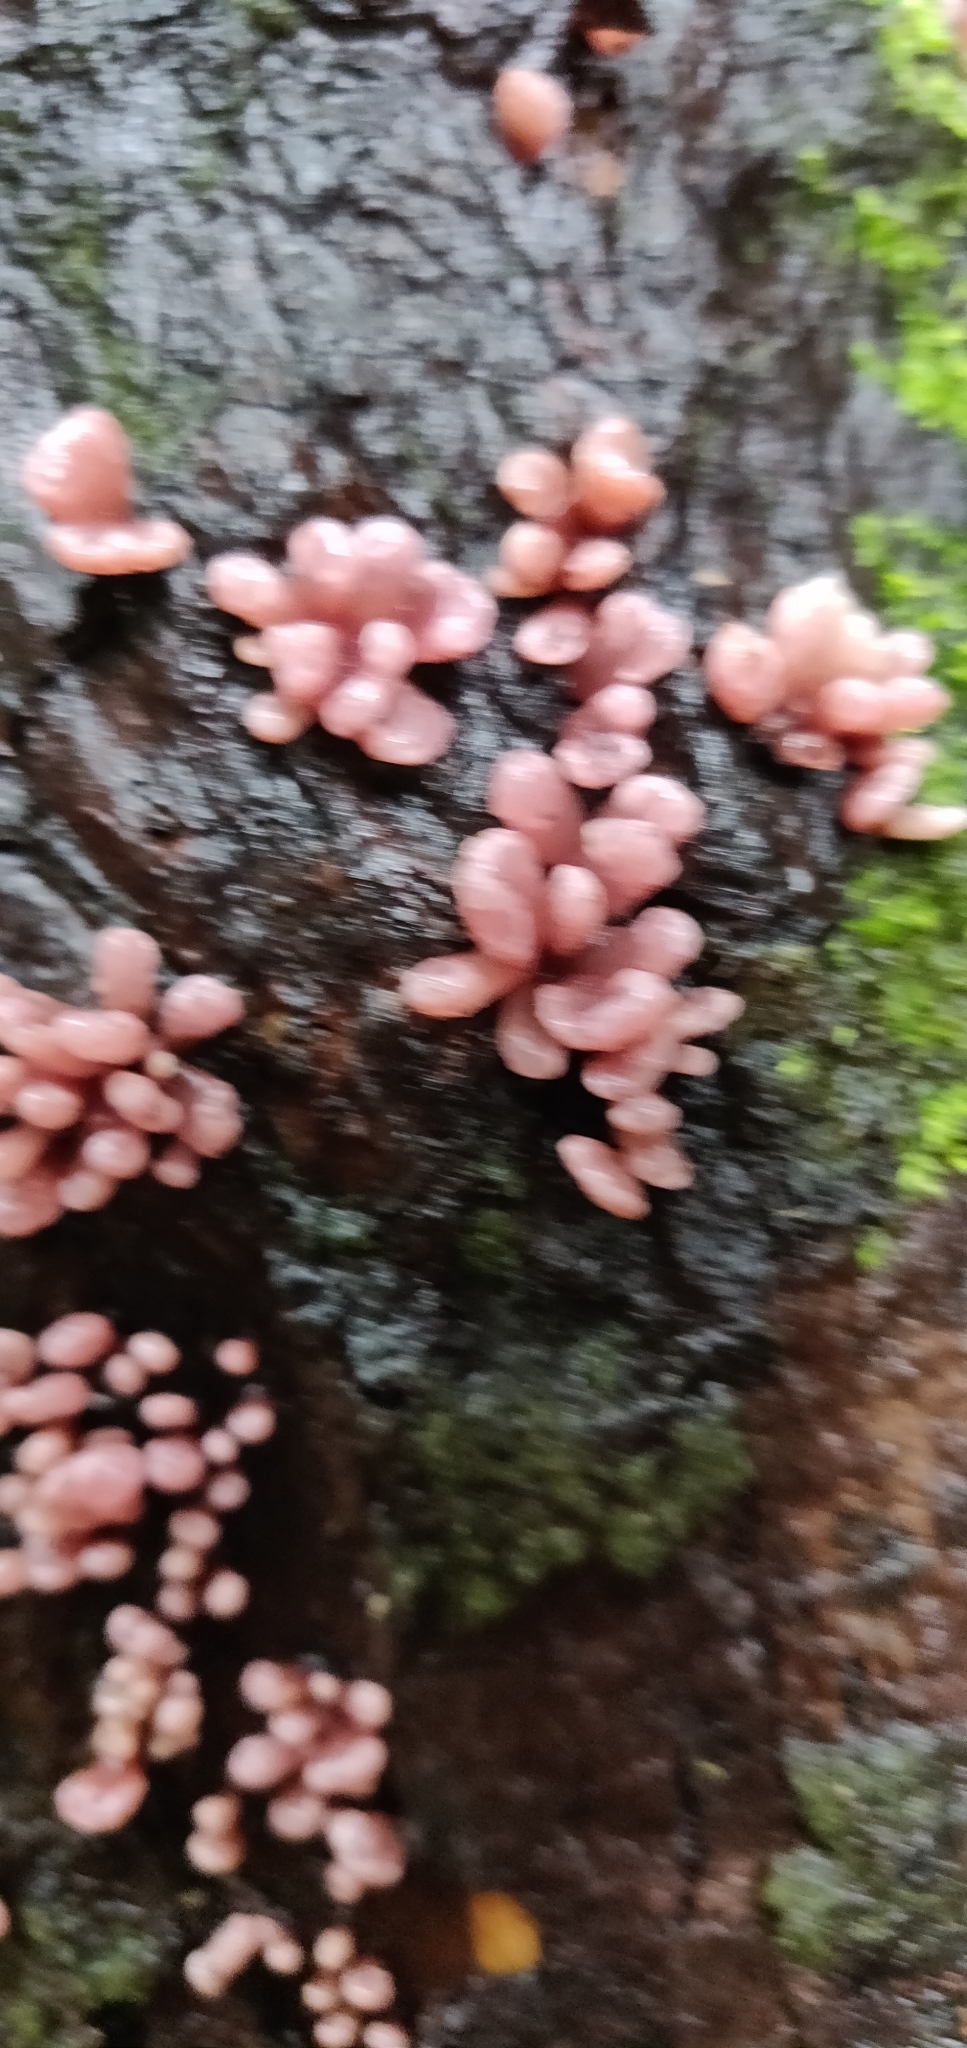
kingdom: Fungi
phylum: Ascomycota
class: Leotiomycetes
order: Helotiales
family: Gelatinodiscaceae
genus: Ascocoryne
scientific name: Ascocoryne sarcoides
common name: Purple jellydisc
